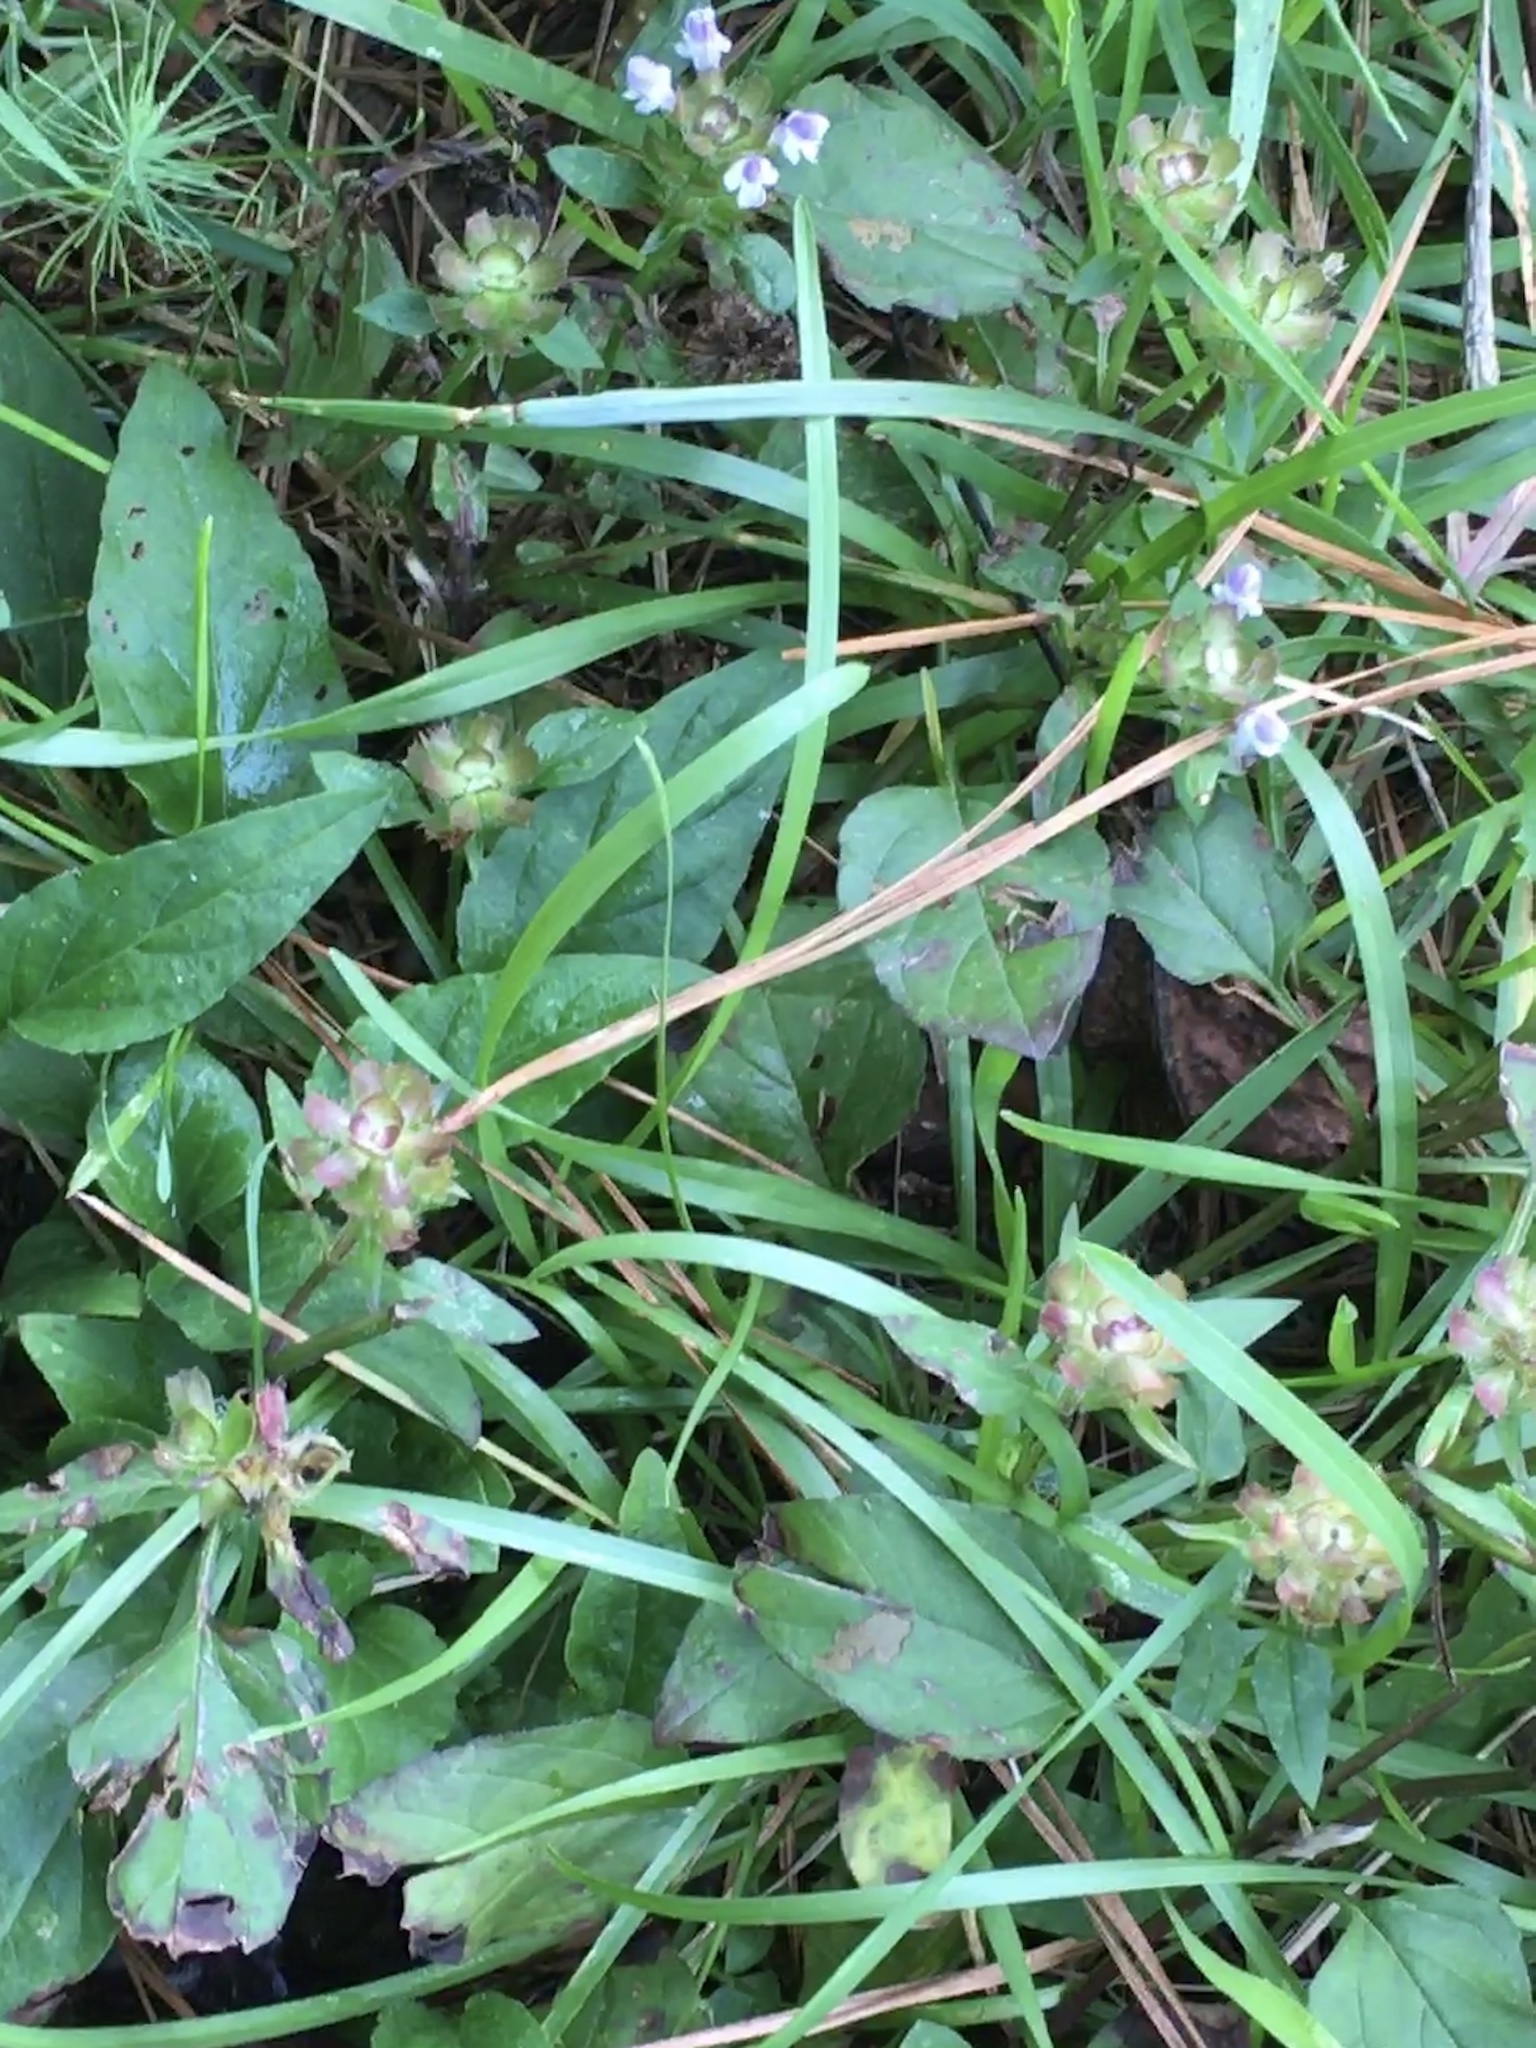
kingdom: Plantae
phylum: Tracheophyta
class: Magnoliopsida
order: Lamiales
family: Lamiaceae
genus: Prunella
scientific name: Prunella vulgaris
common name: Heal-all
